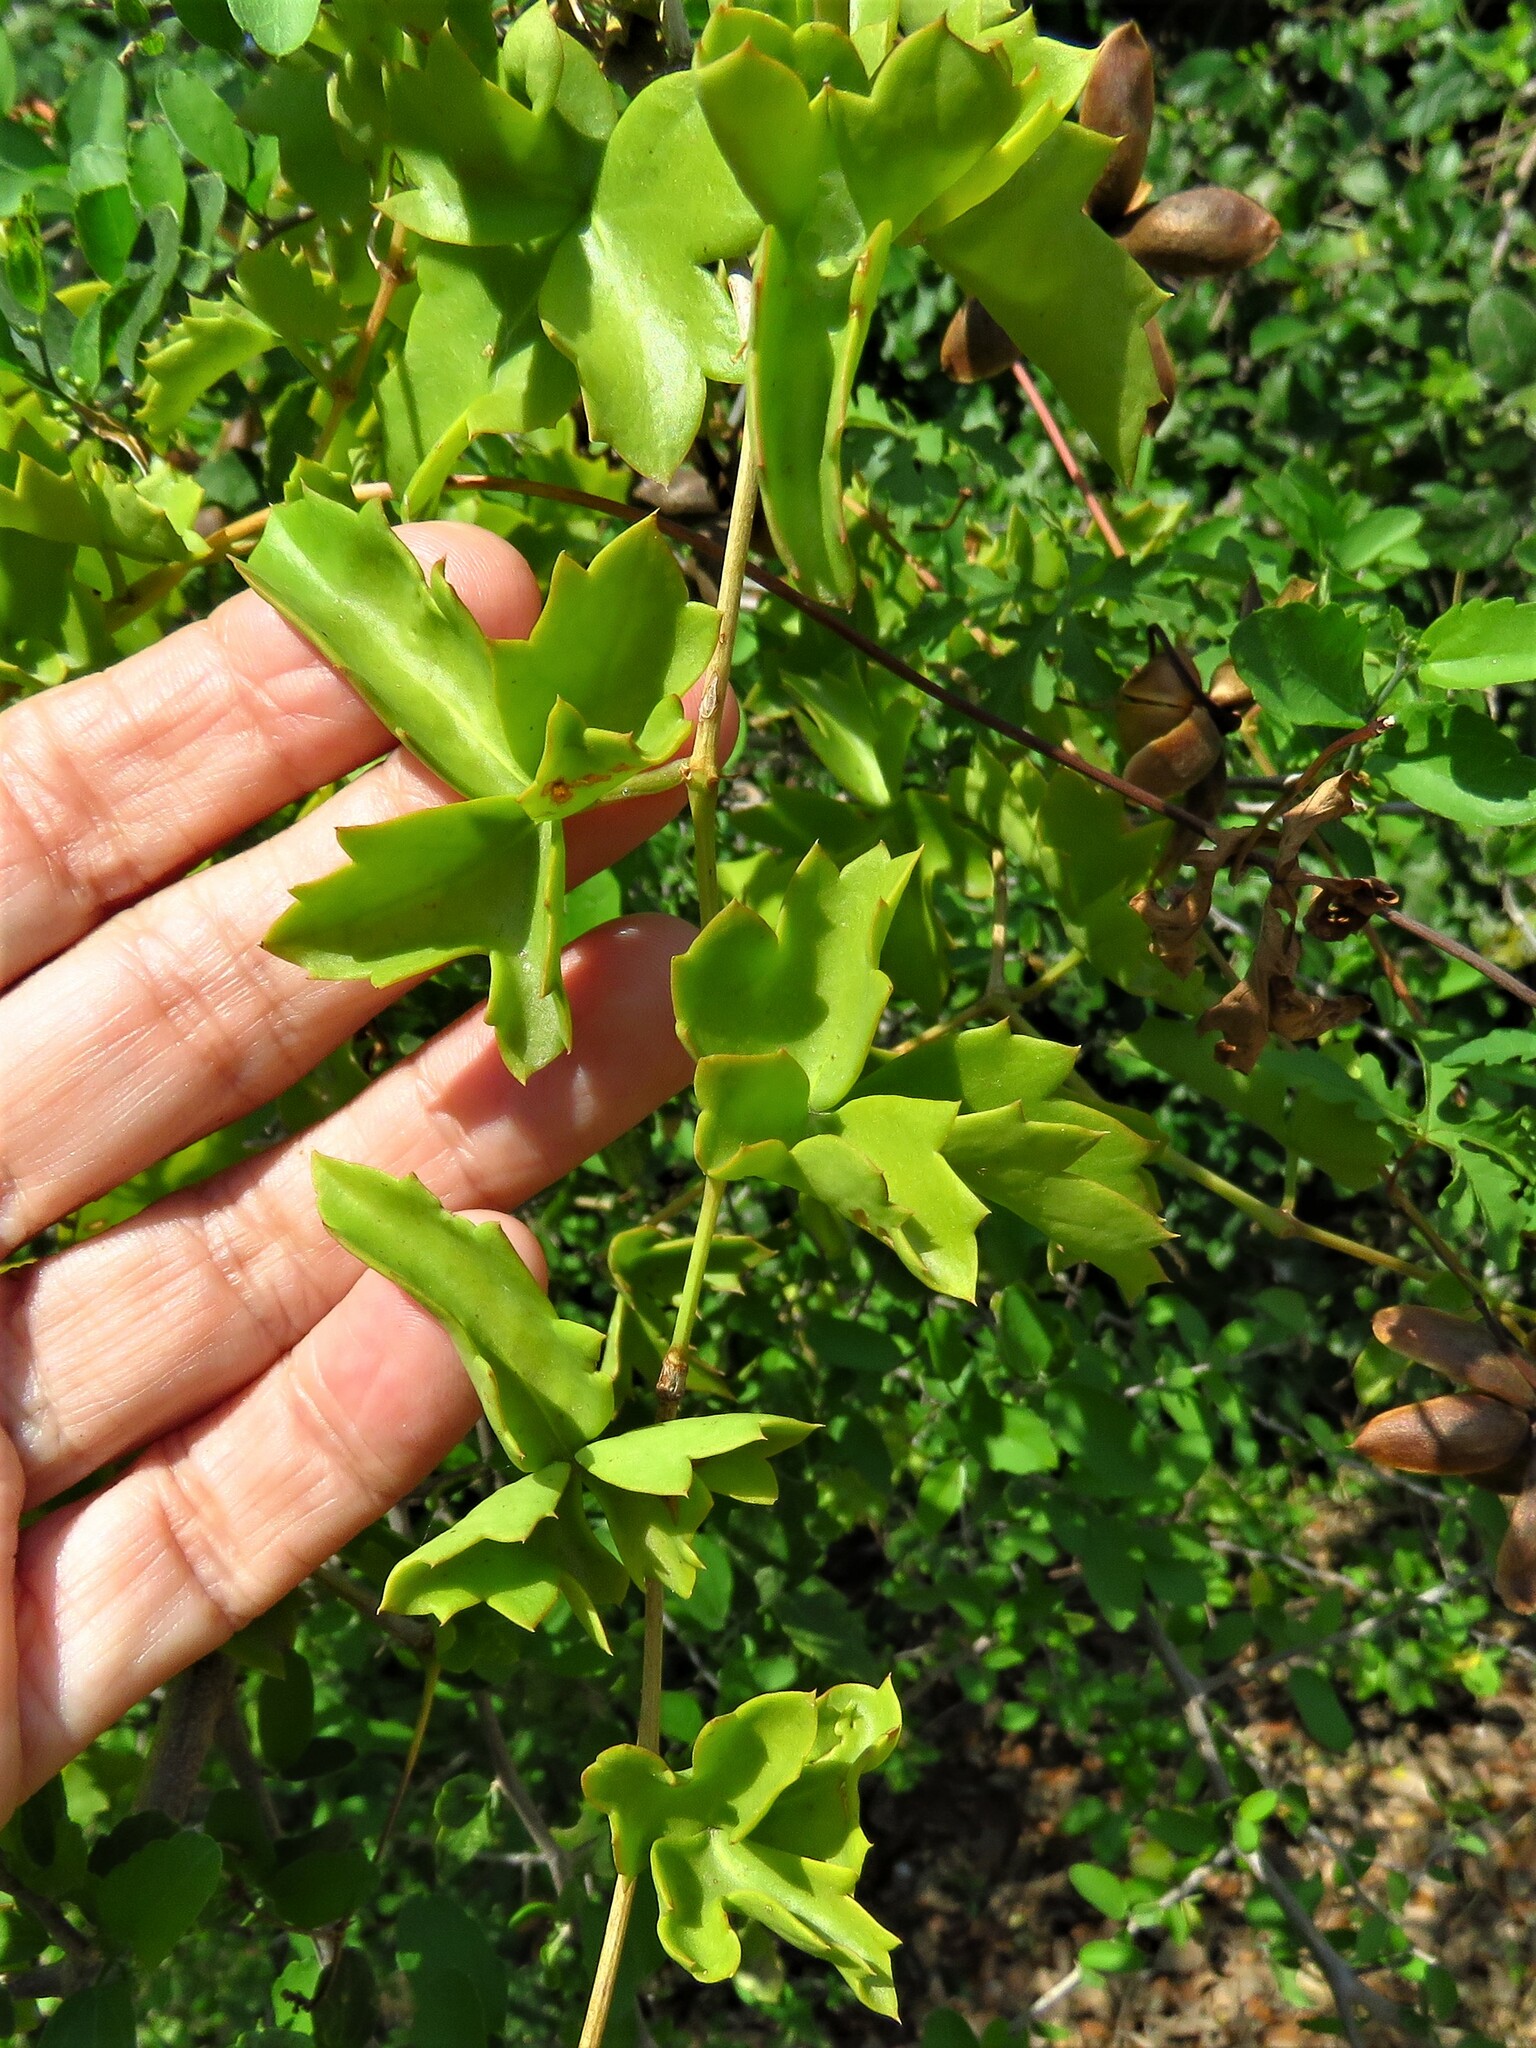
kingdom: Plantae
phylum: Tracheophyta
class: Magnoliopsida
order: Vitales
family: Vitaceae
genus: Cissus
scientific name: Cissus trifoliata
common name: Vine-sorrel
